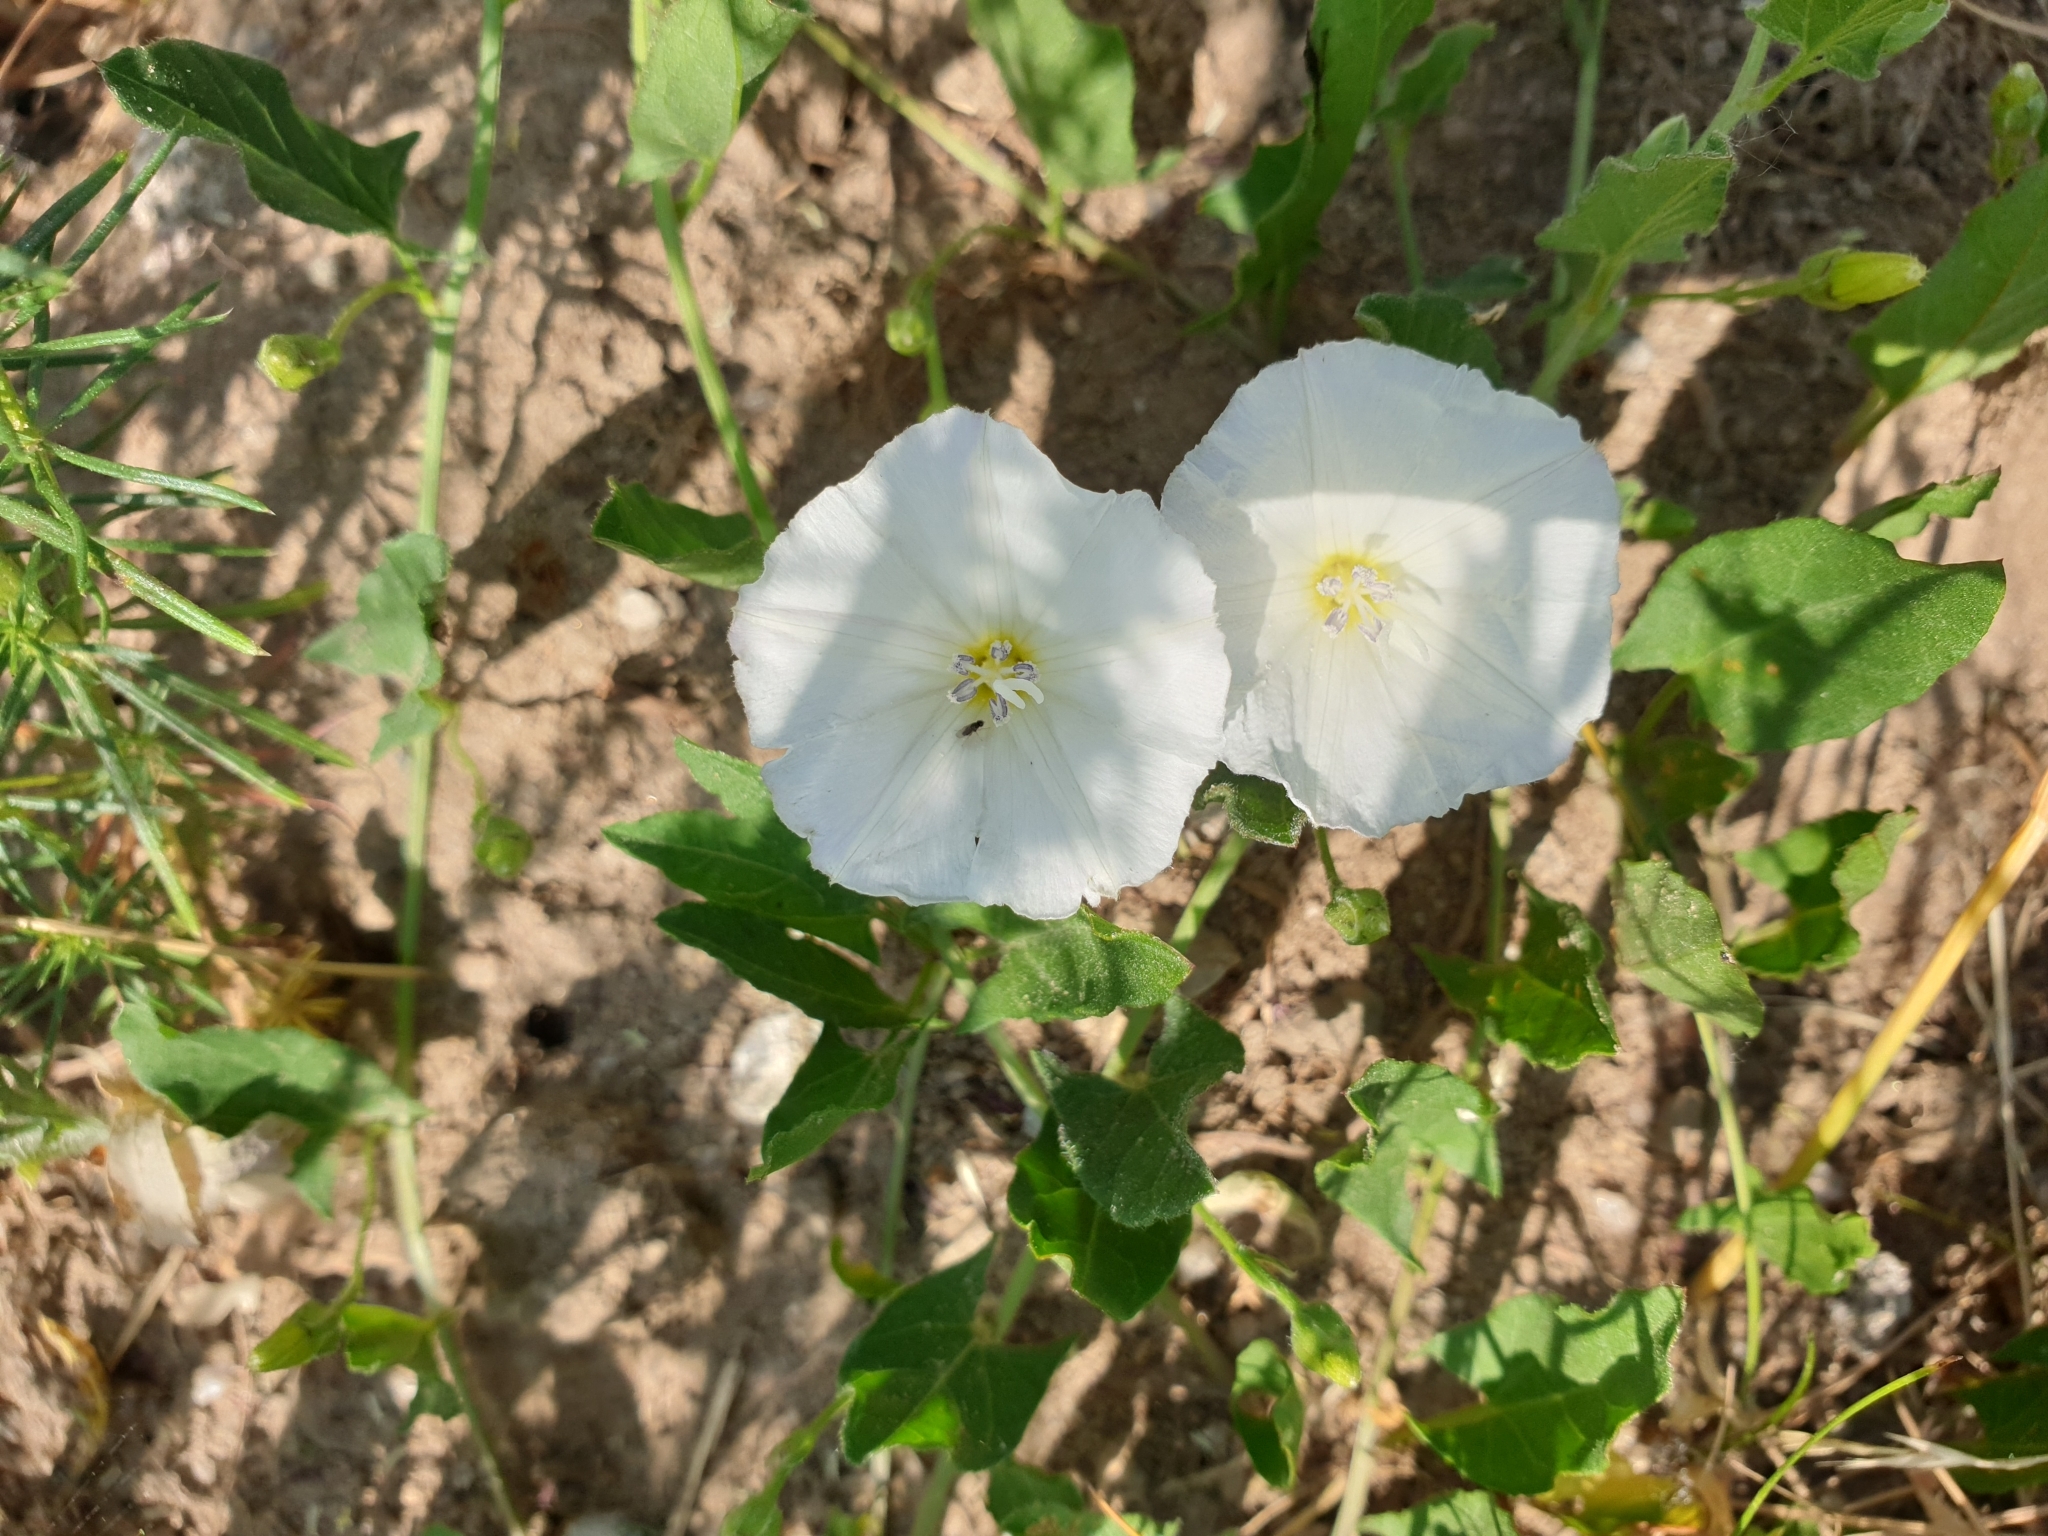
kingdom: Plantae
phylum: Tracheophyta
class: Magnoliopsida
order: Solanales
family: Convolvulaceae
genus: Convolvulus
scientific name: Convolvulus arvensis
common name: Field bindweed
